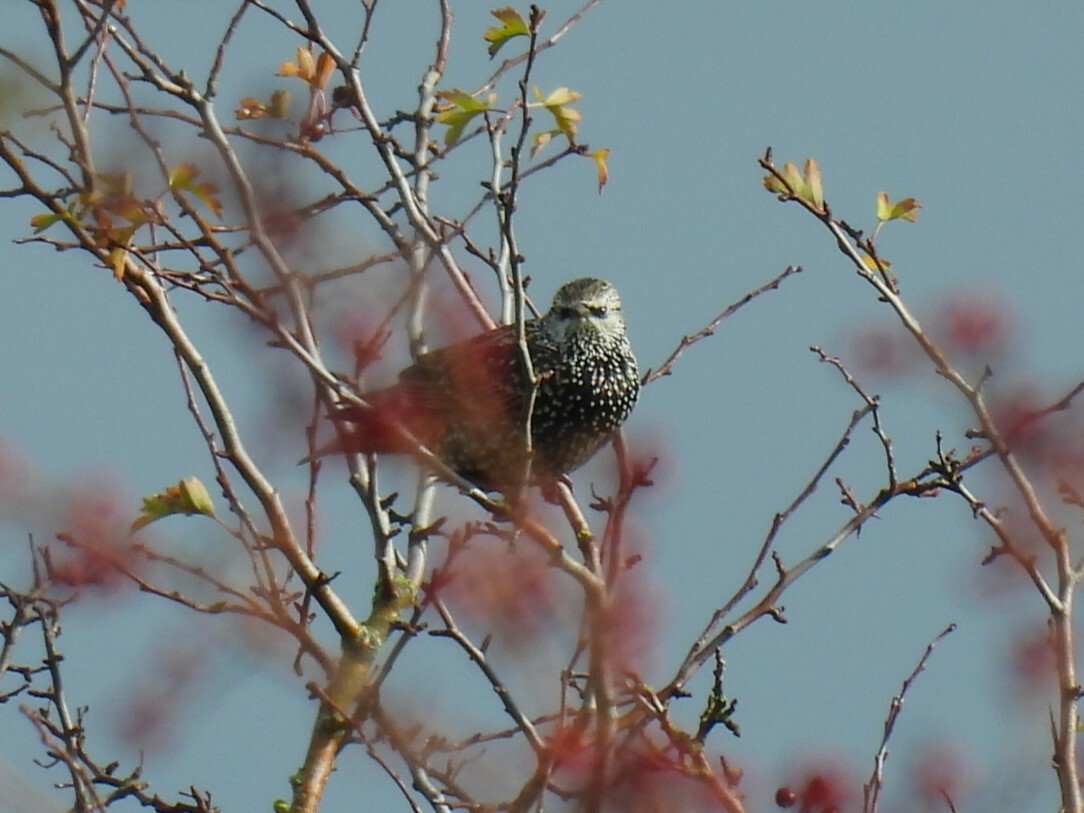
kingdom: Animalia
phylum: Chordata
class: Aves
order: Passeriformes
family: Sturnidae
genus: Sturnus
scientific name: Sturnus vulgaris
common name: Common starling
